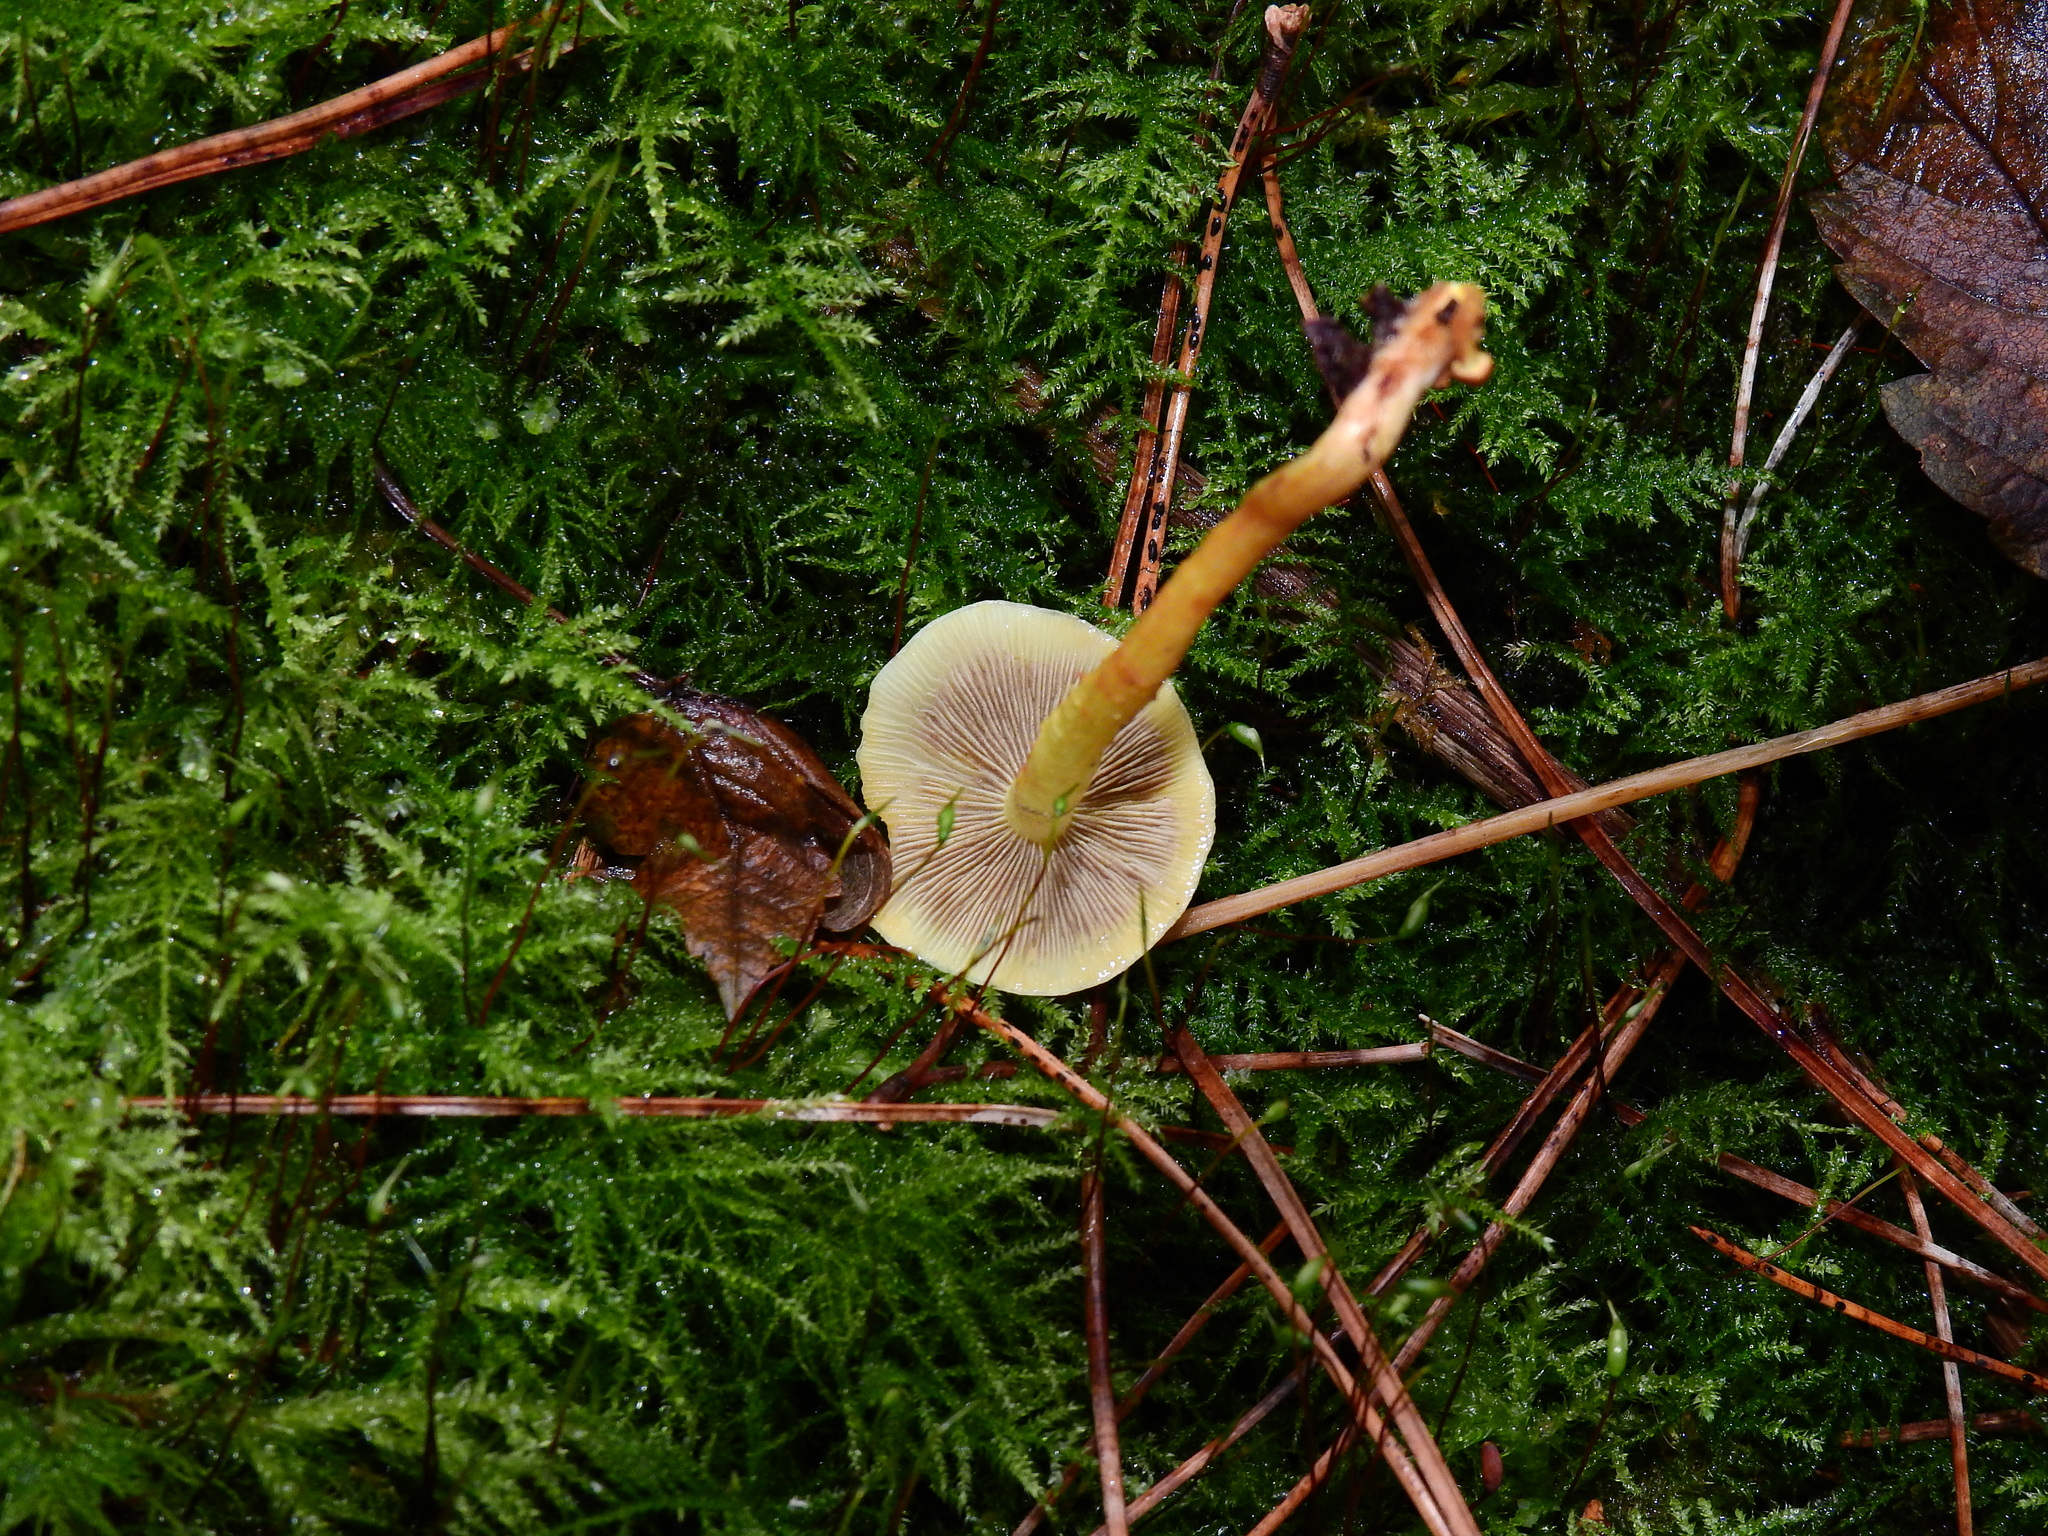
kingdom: Fungi
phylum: Basidiomycota
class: Agaricomycetes
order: Agaricales
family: Strophariaceae
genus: Hypholoma
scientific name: Hypholoma fasciculare
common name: Sulphur tuft
